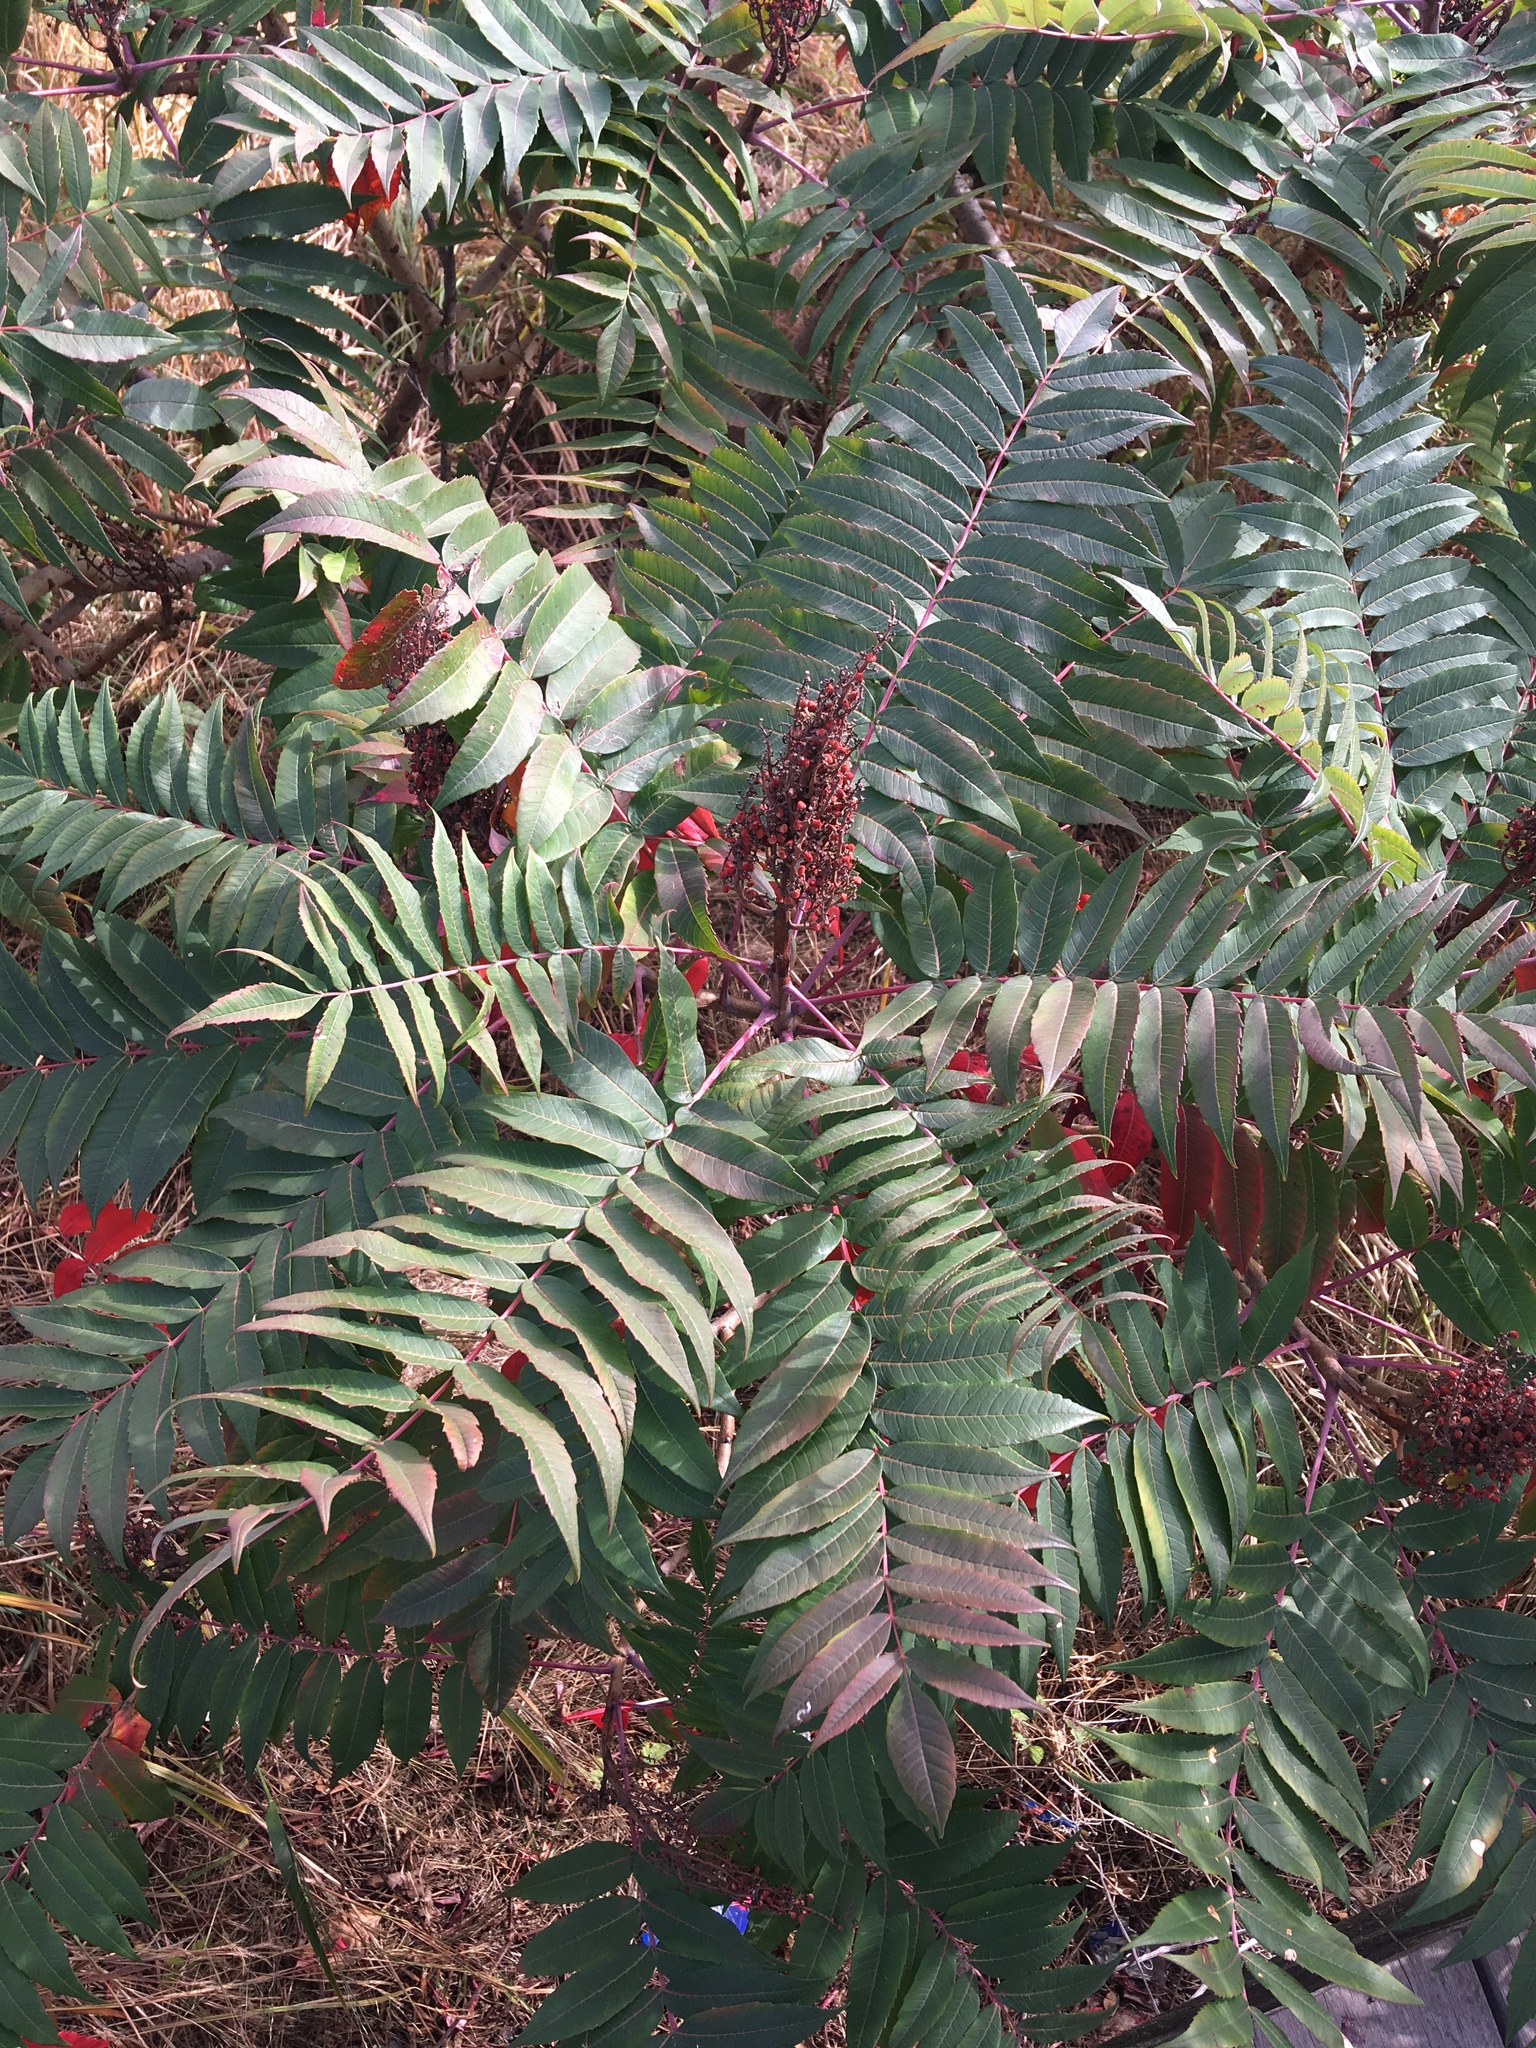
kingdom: Plantae
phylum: Tracheophyta
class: Magnoliopsida
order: Sapindales
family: Anacardiaceae
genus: Rhus
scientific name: Rhus glabra
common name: Scarlet sumac
